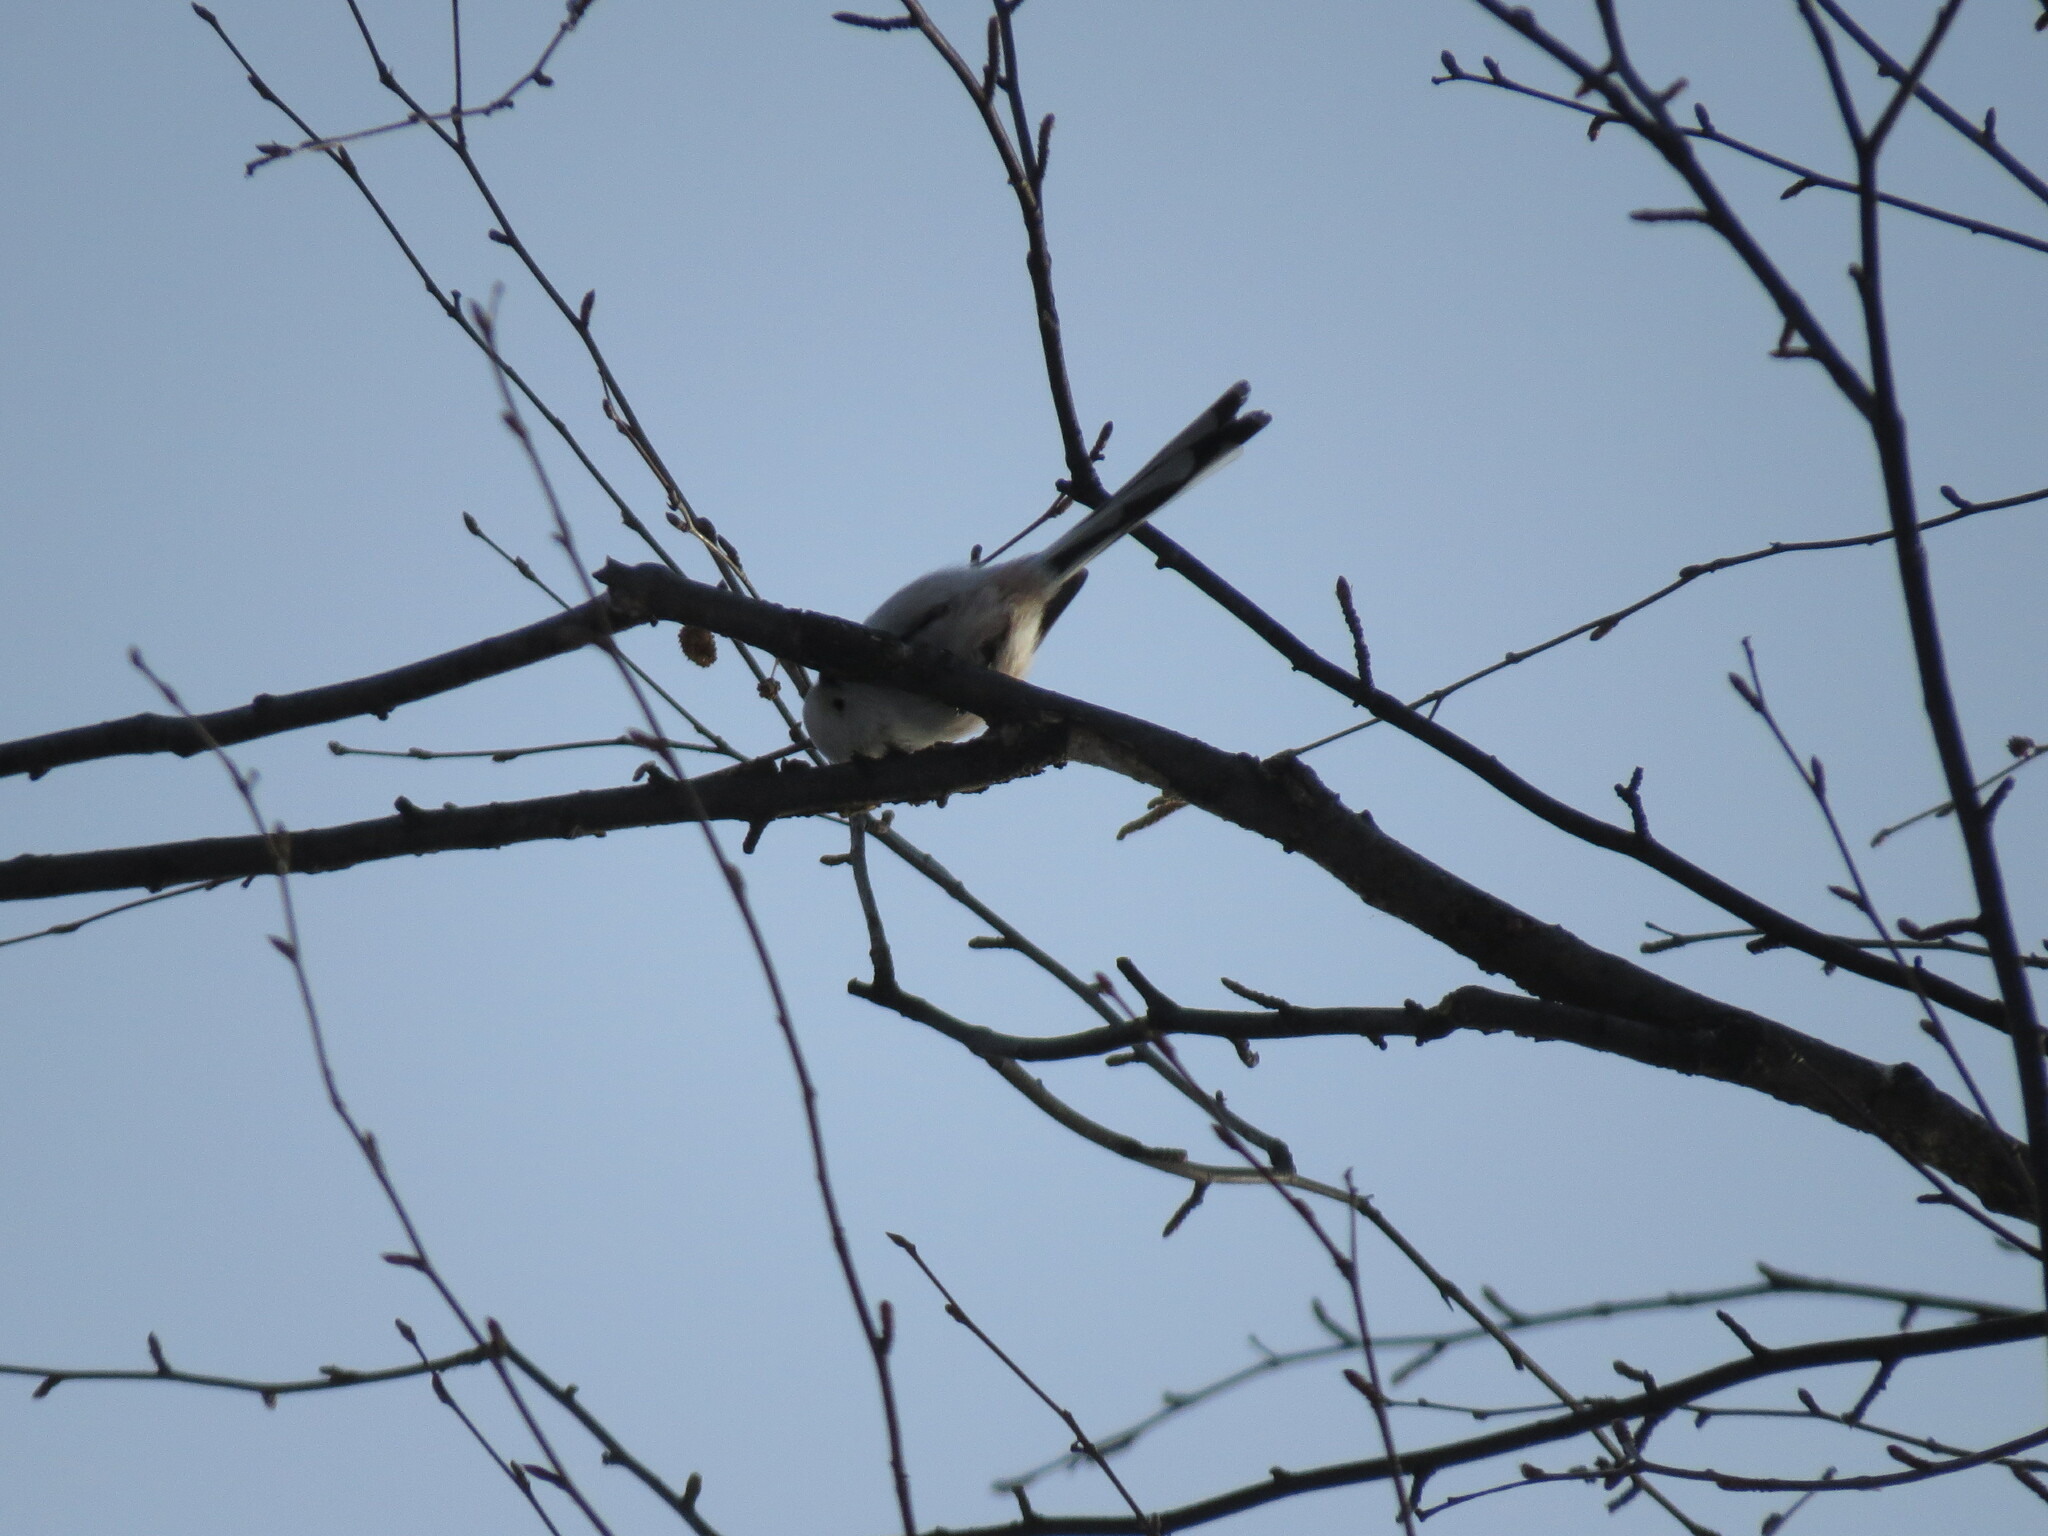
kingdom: Animalia
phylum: Chordata
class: Aves
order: Passeriformes
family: Aegithalidae
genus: Aegithalos
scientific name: Aegithalos caudatus
